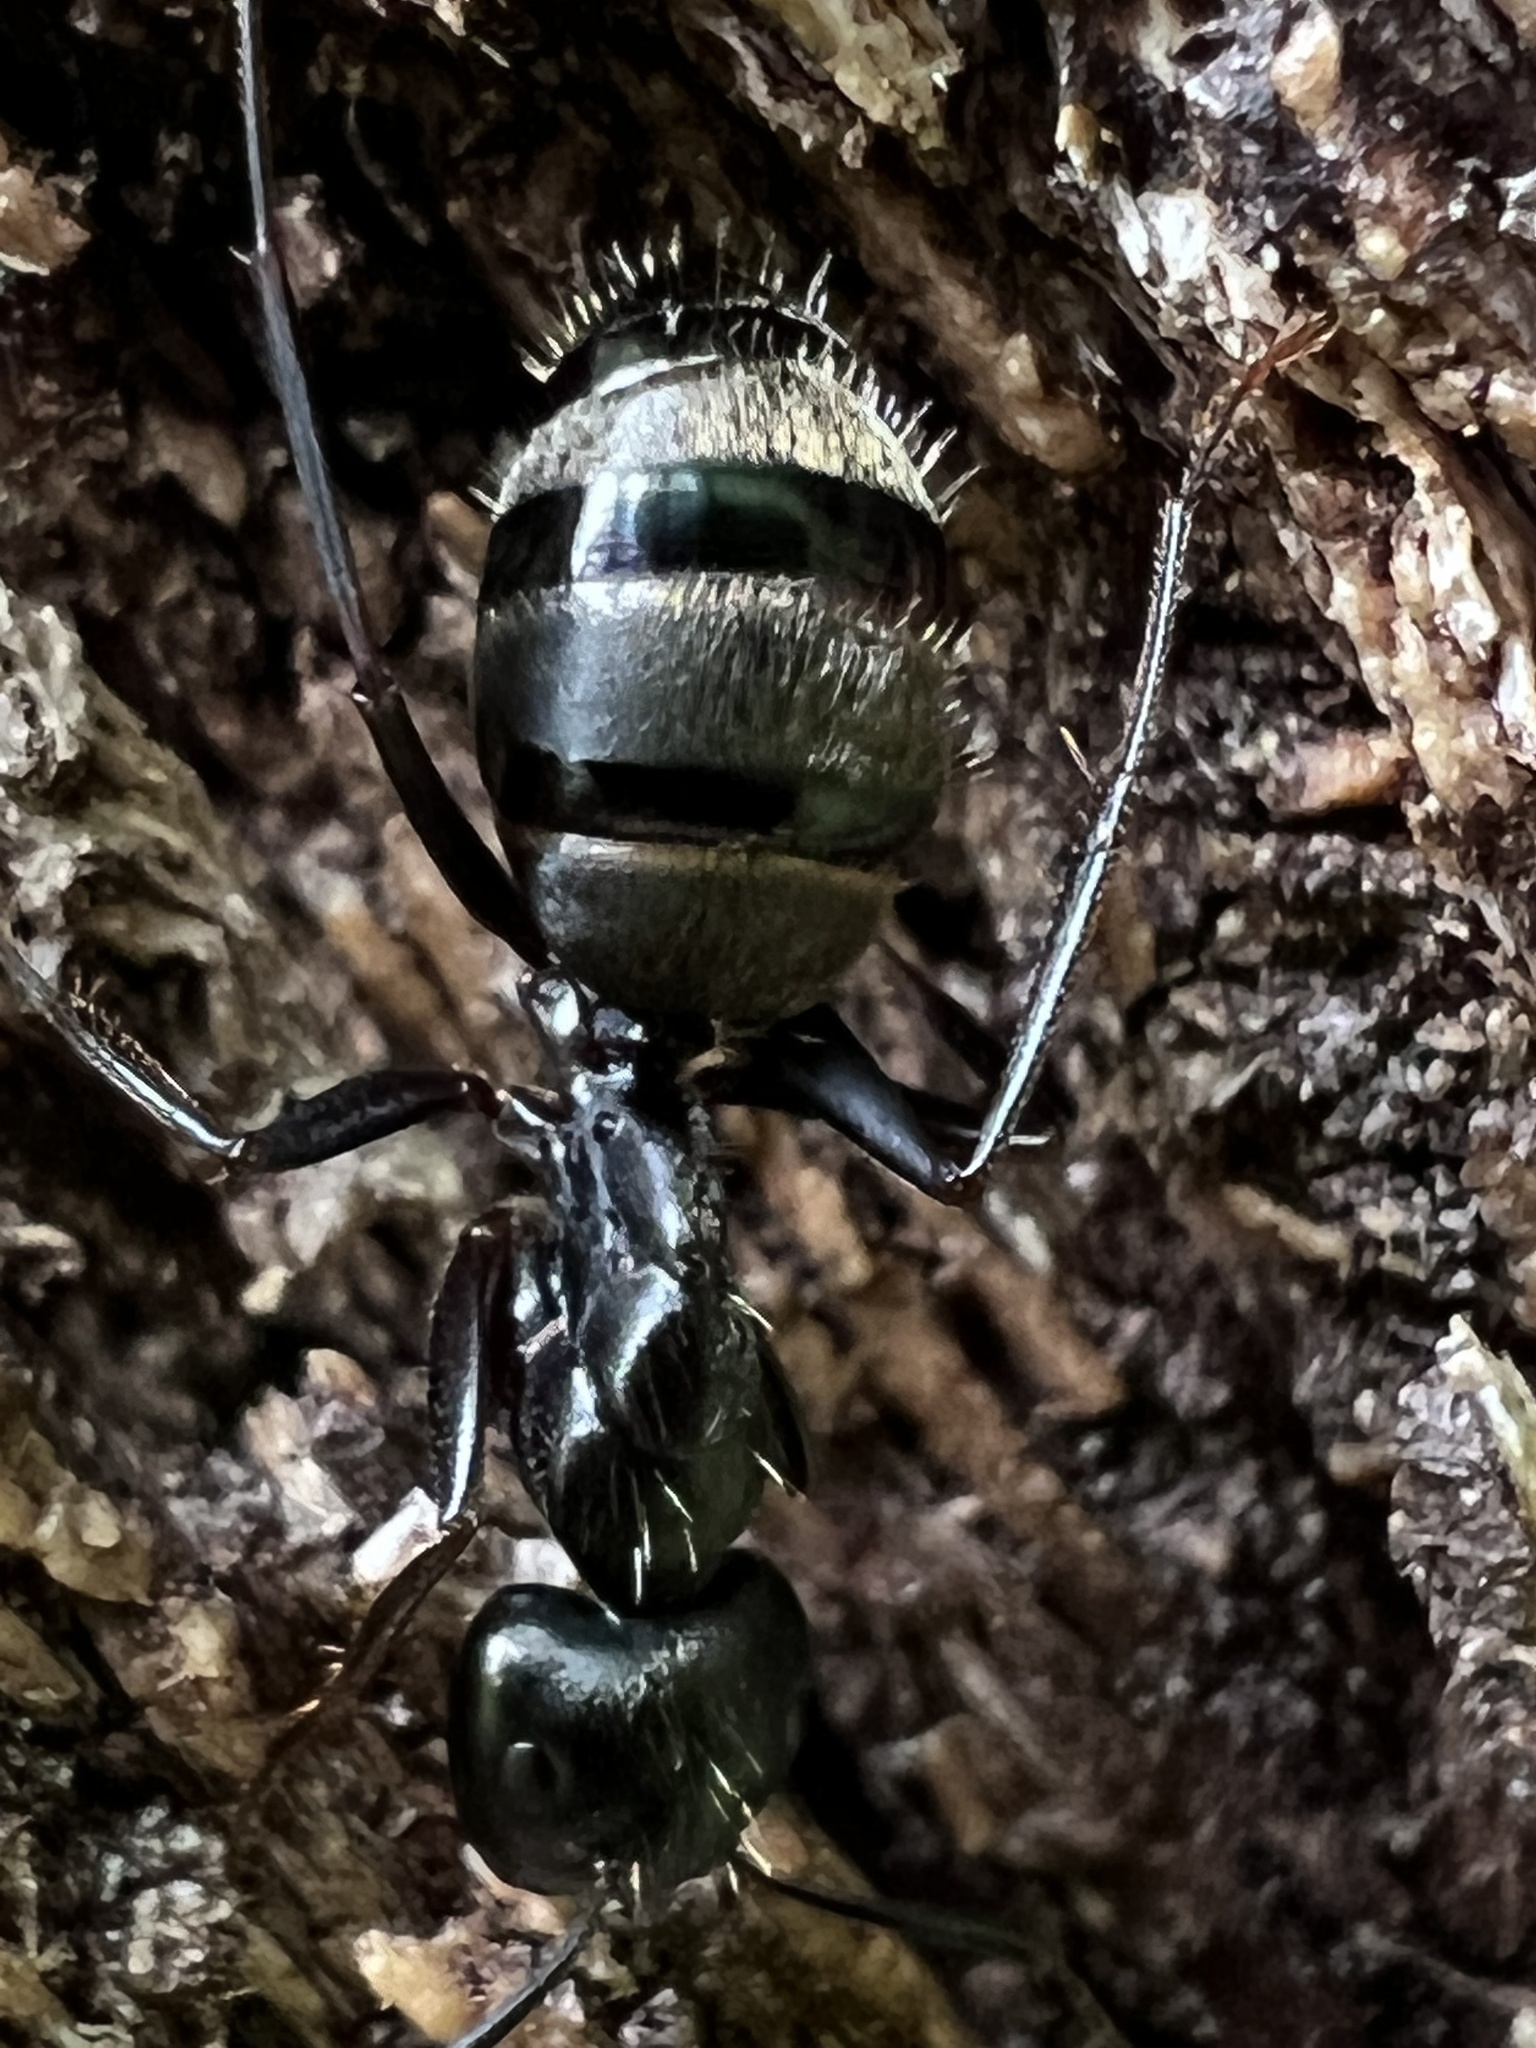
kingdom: Animalia
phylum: Arthropoda
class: Insecta
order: Hymenoptera
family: Formicidae
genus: Camponotus
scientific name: Camponotus pennsylvanicus
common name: Black carpenter ant
